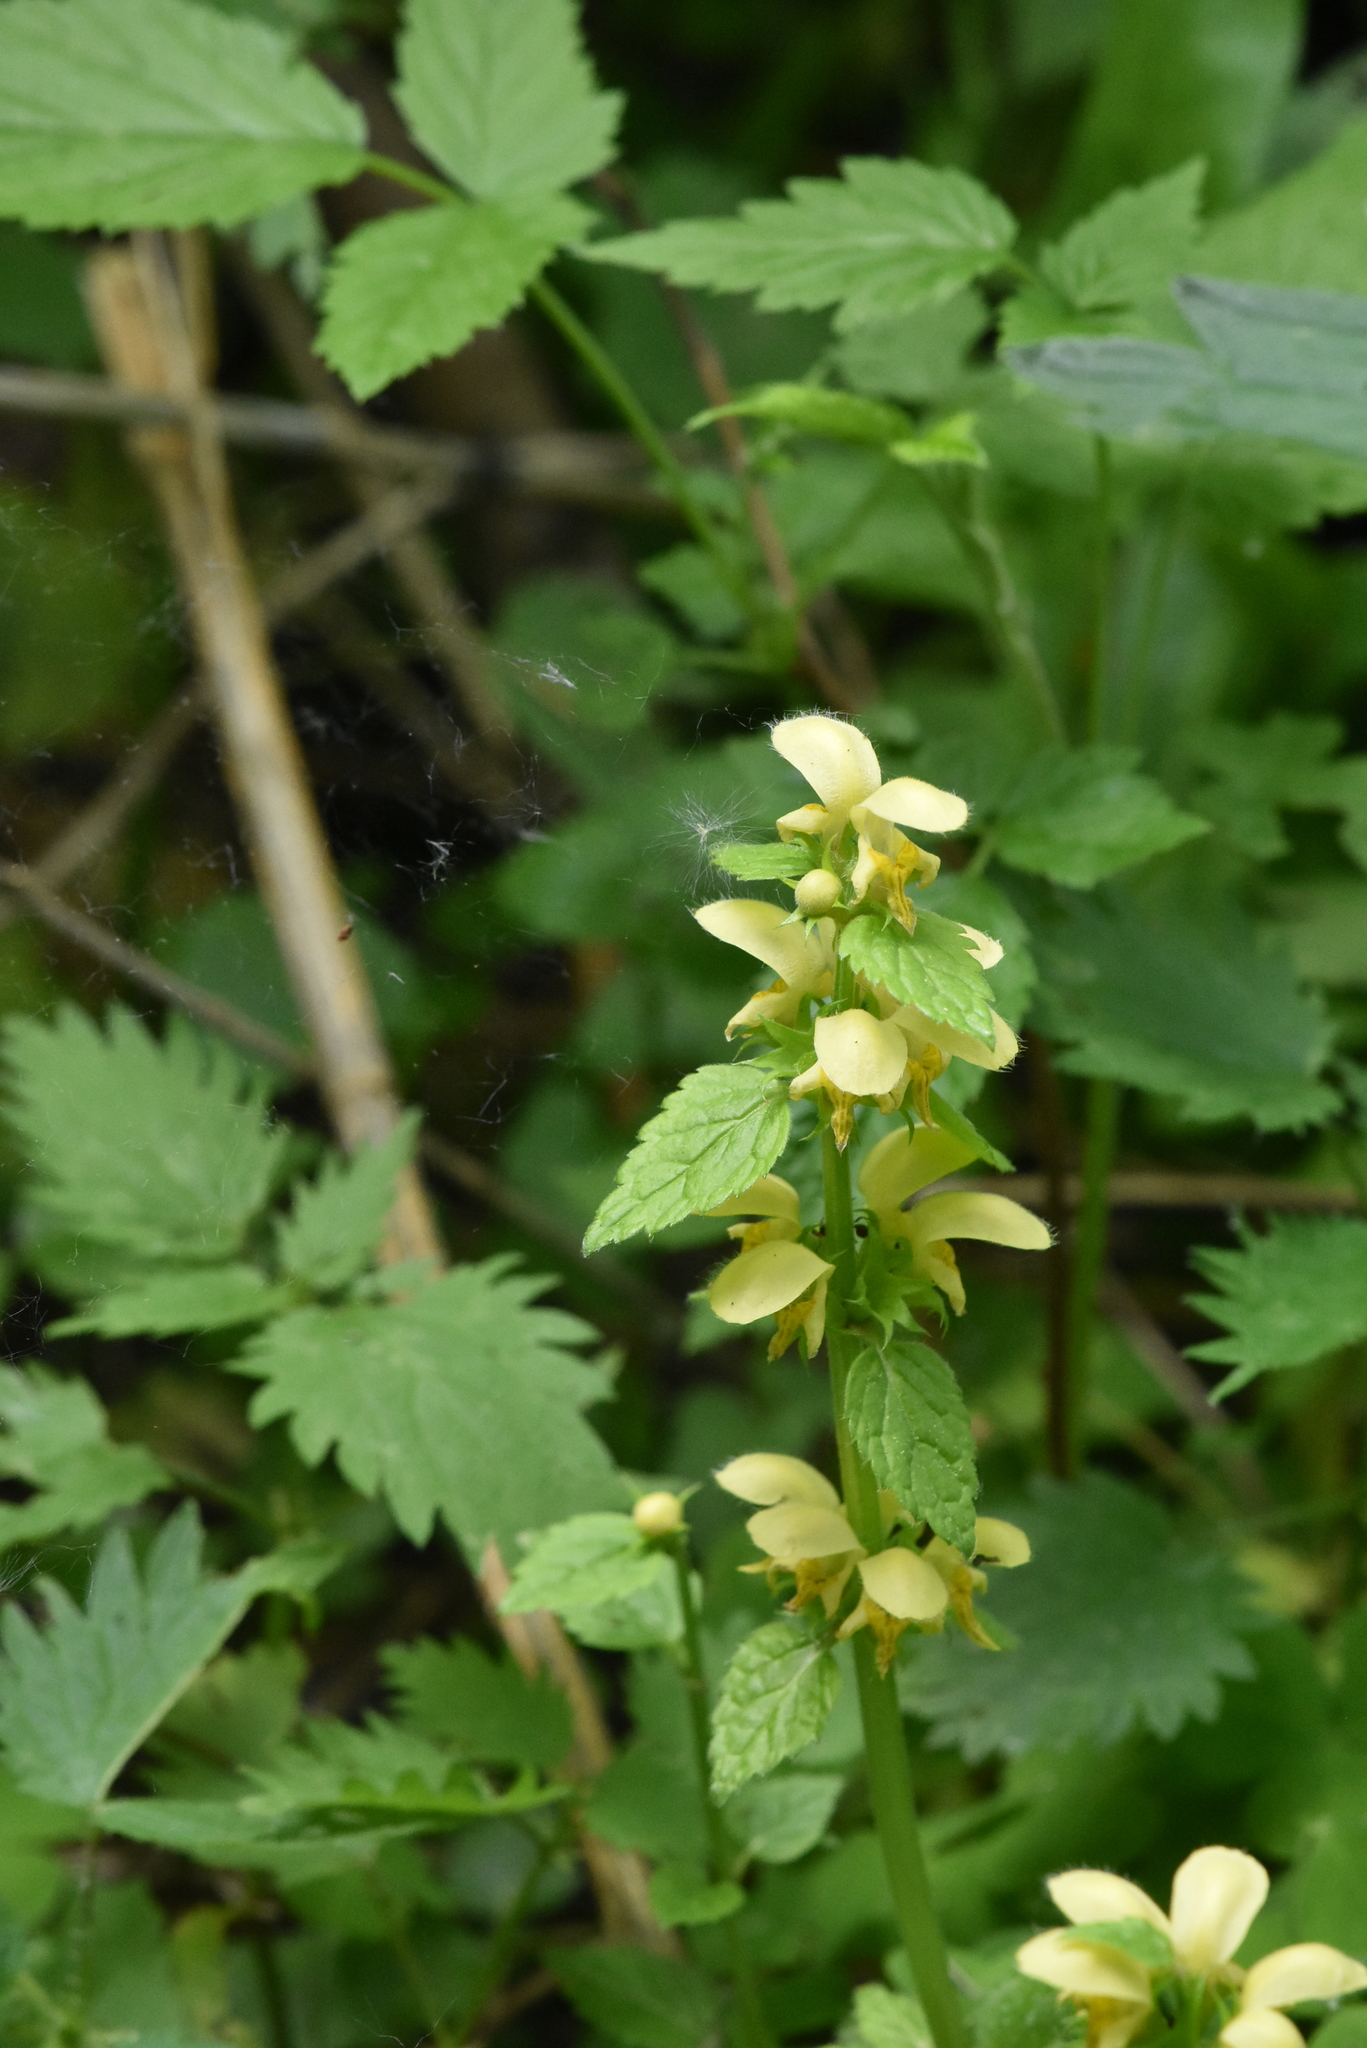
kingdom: Plantae
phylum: Tracheophyta
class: Magnoliopsida
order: Lamiales
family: Lamiaceae
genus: Lamium
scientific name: Lamium galeobdolon
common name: Yellow archangel
